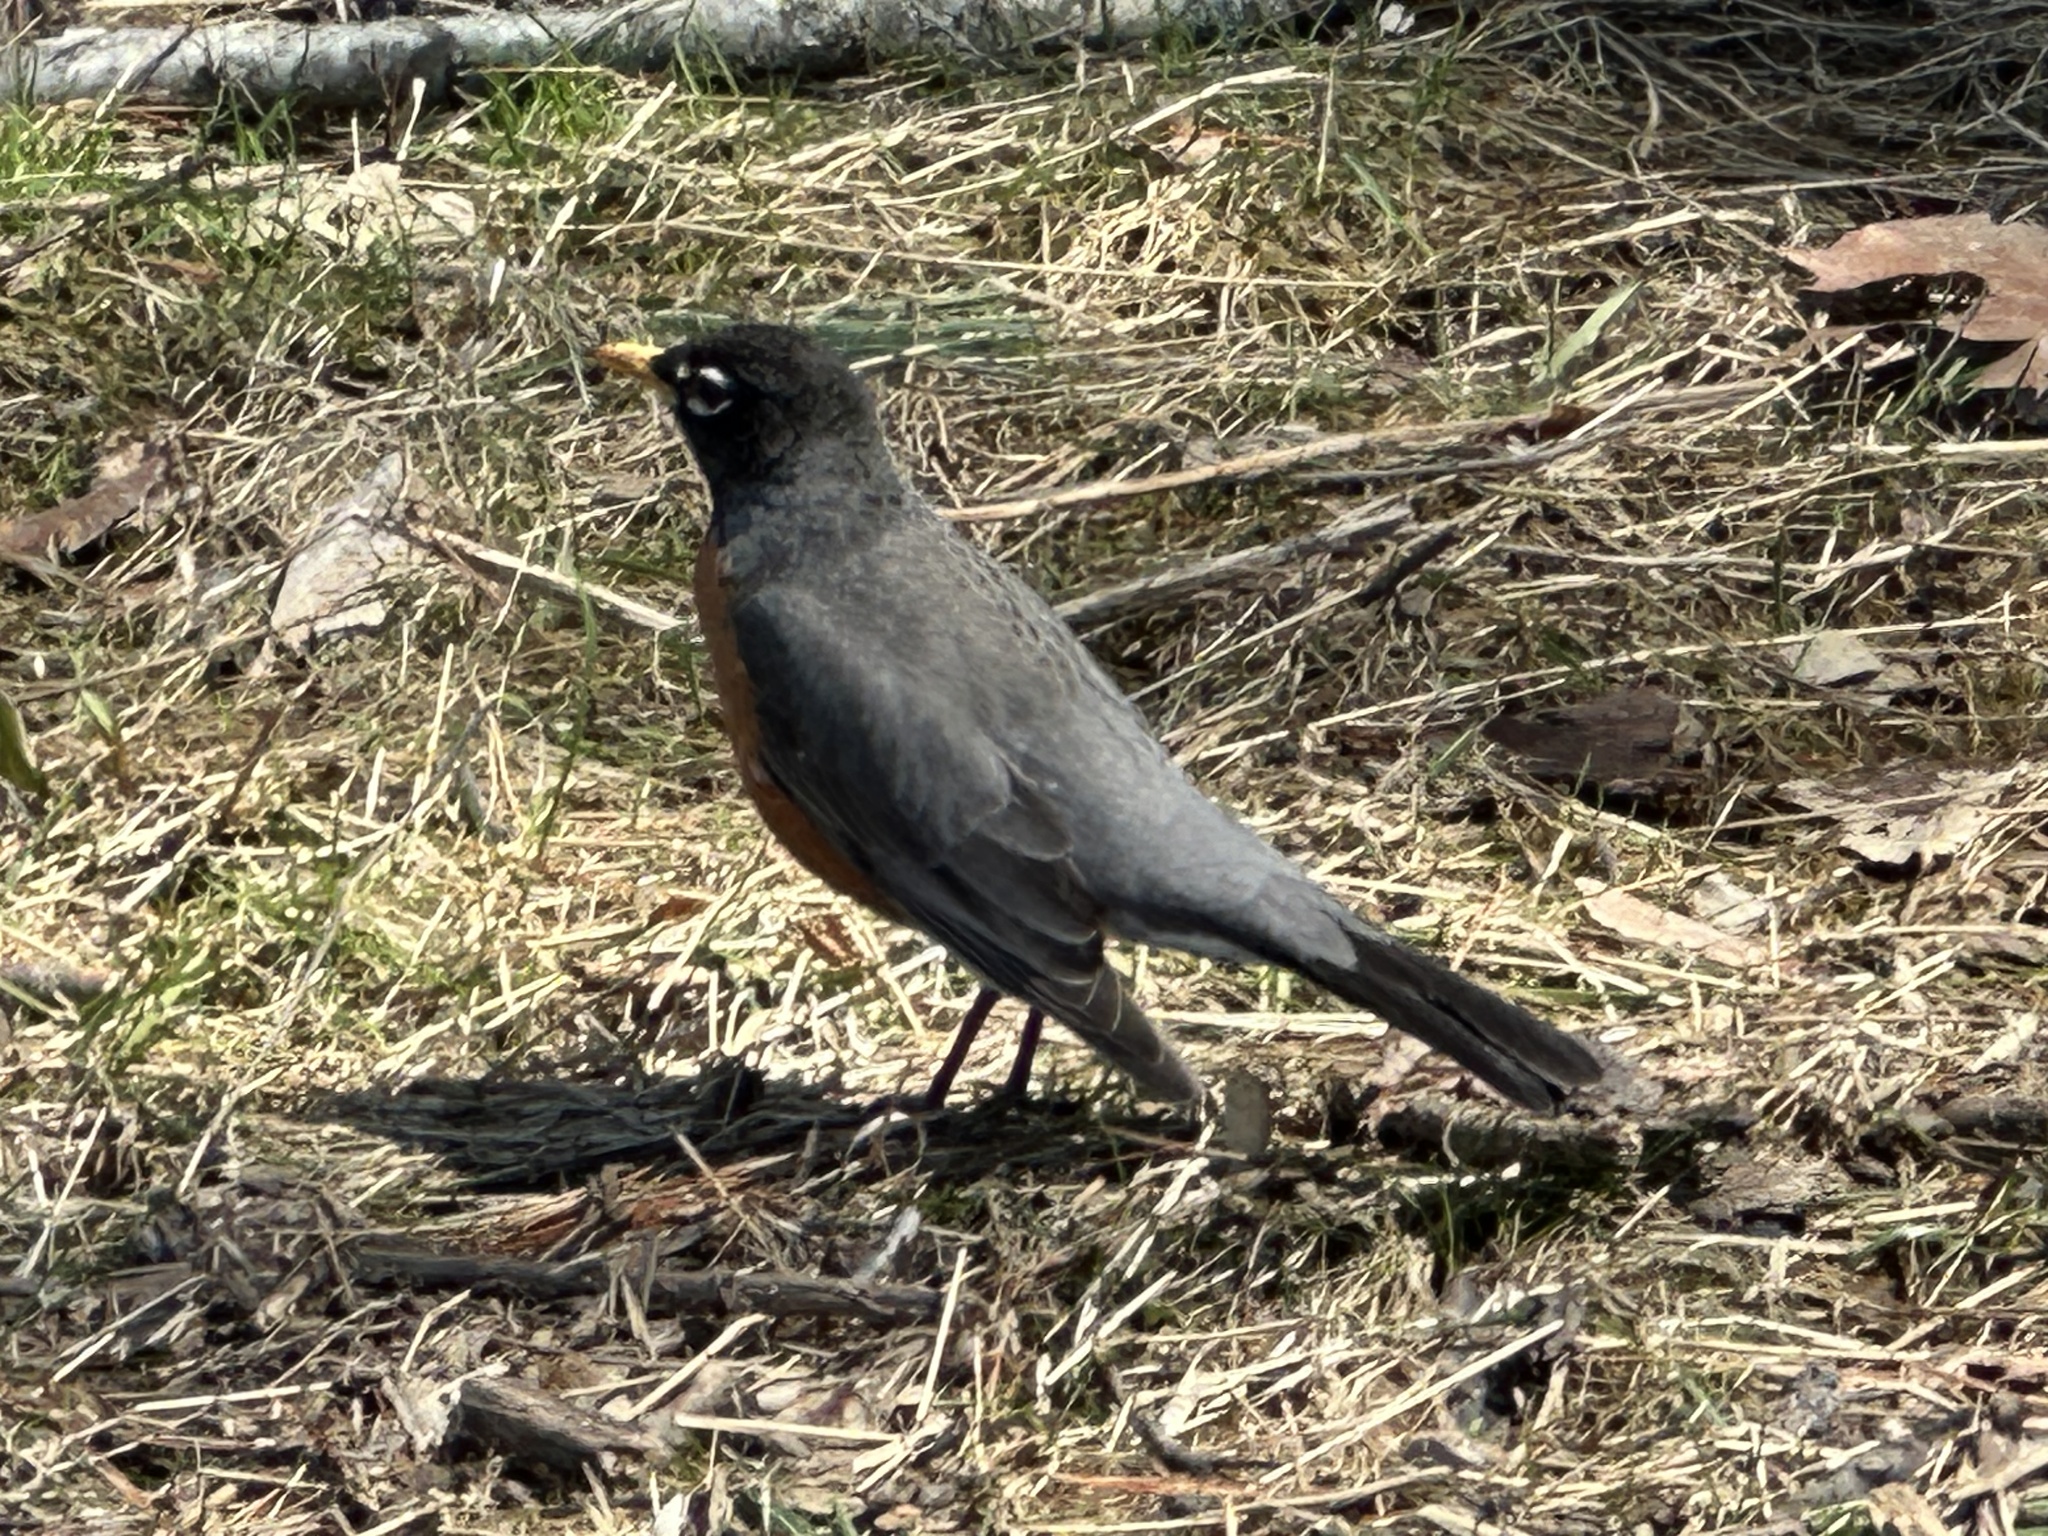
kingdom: Animalia
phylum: Chordata
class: Aves
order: Passeriformes
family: Turdidae
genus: Turdus
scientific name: Turdus migratorius
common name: American robin
